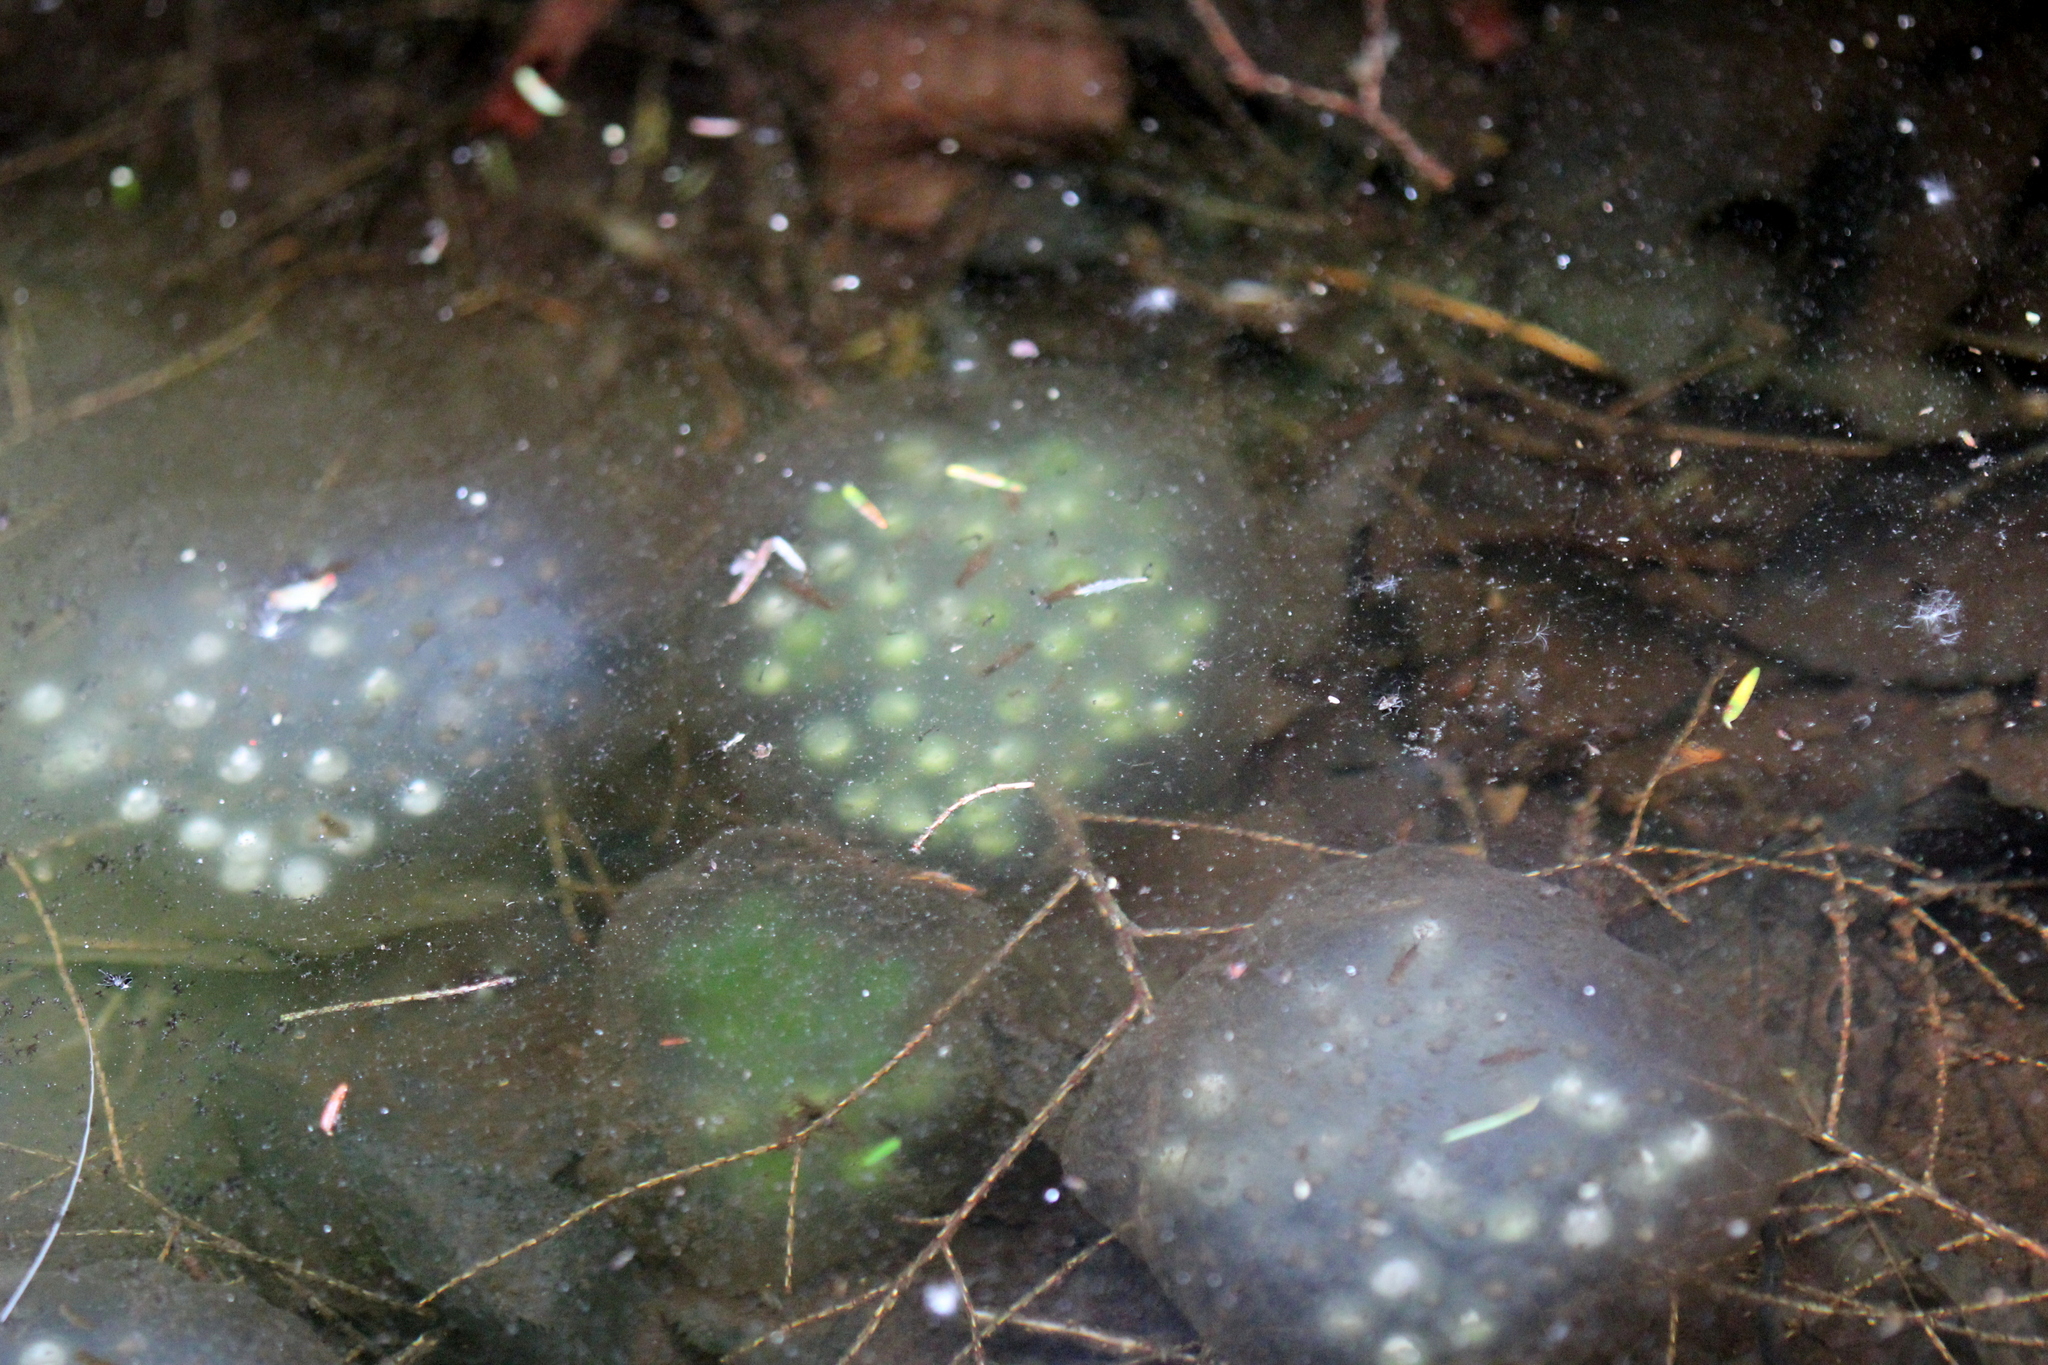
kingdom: Animalia
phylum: Chordata
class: Amphibia
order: Caudata
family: Ambystomatidae
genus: Ambystoma
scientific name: Ambystoma maculatum
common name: Spotted salamander
